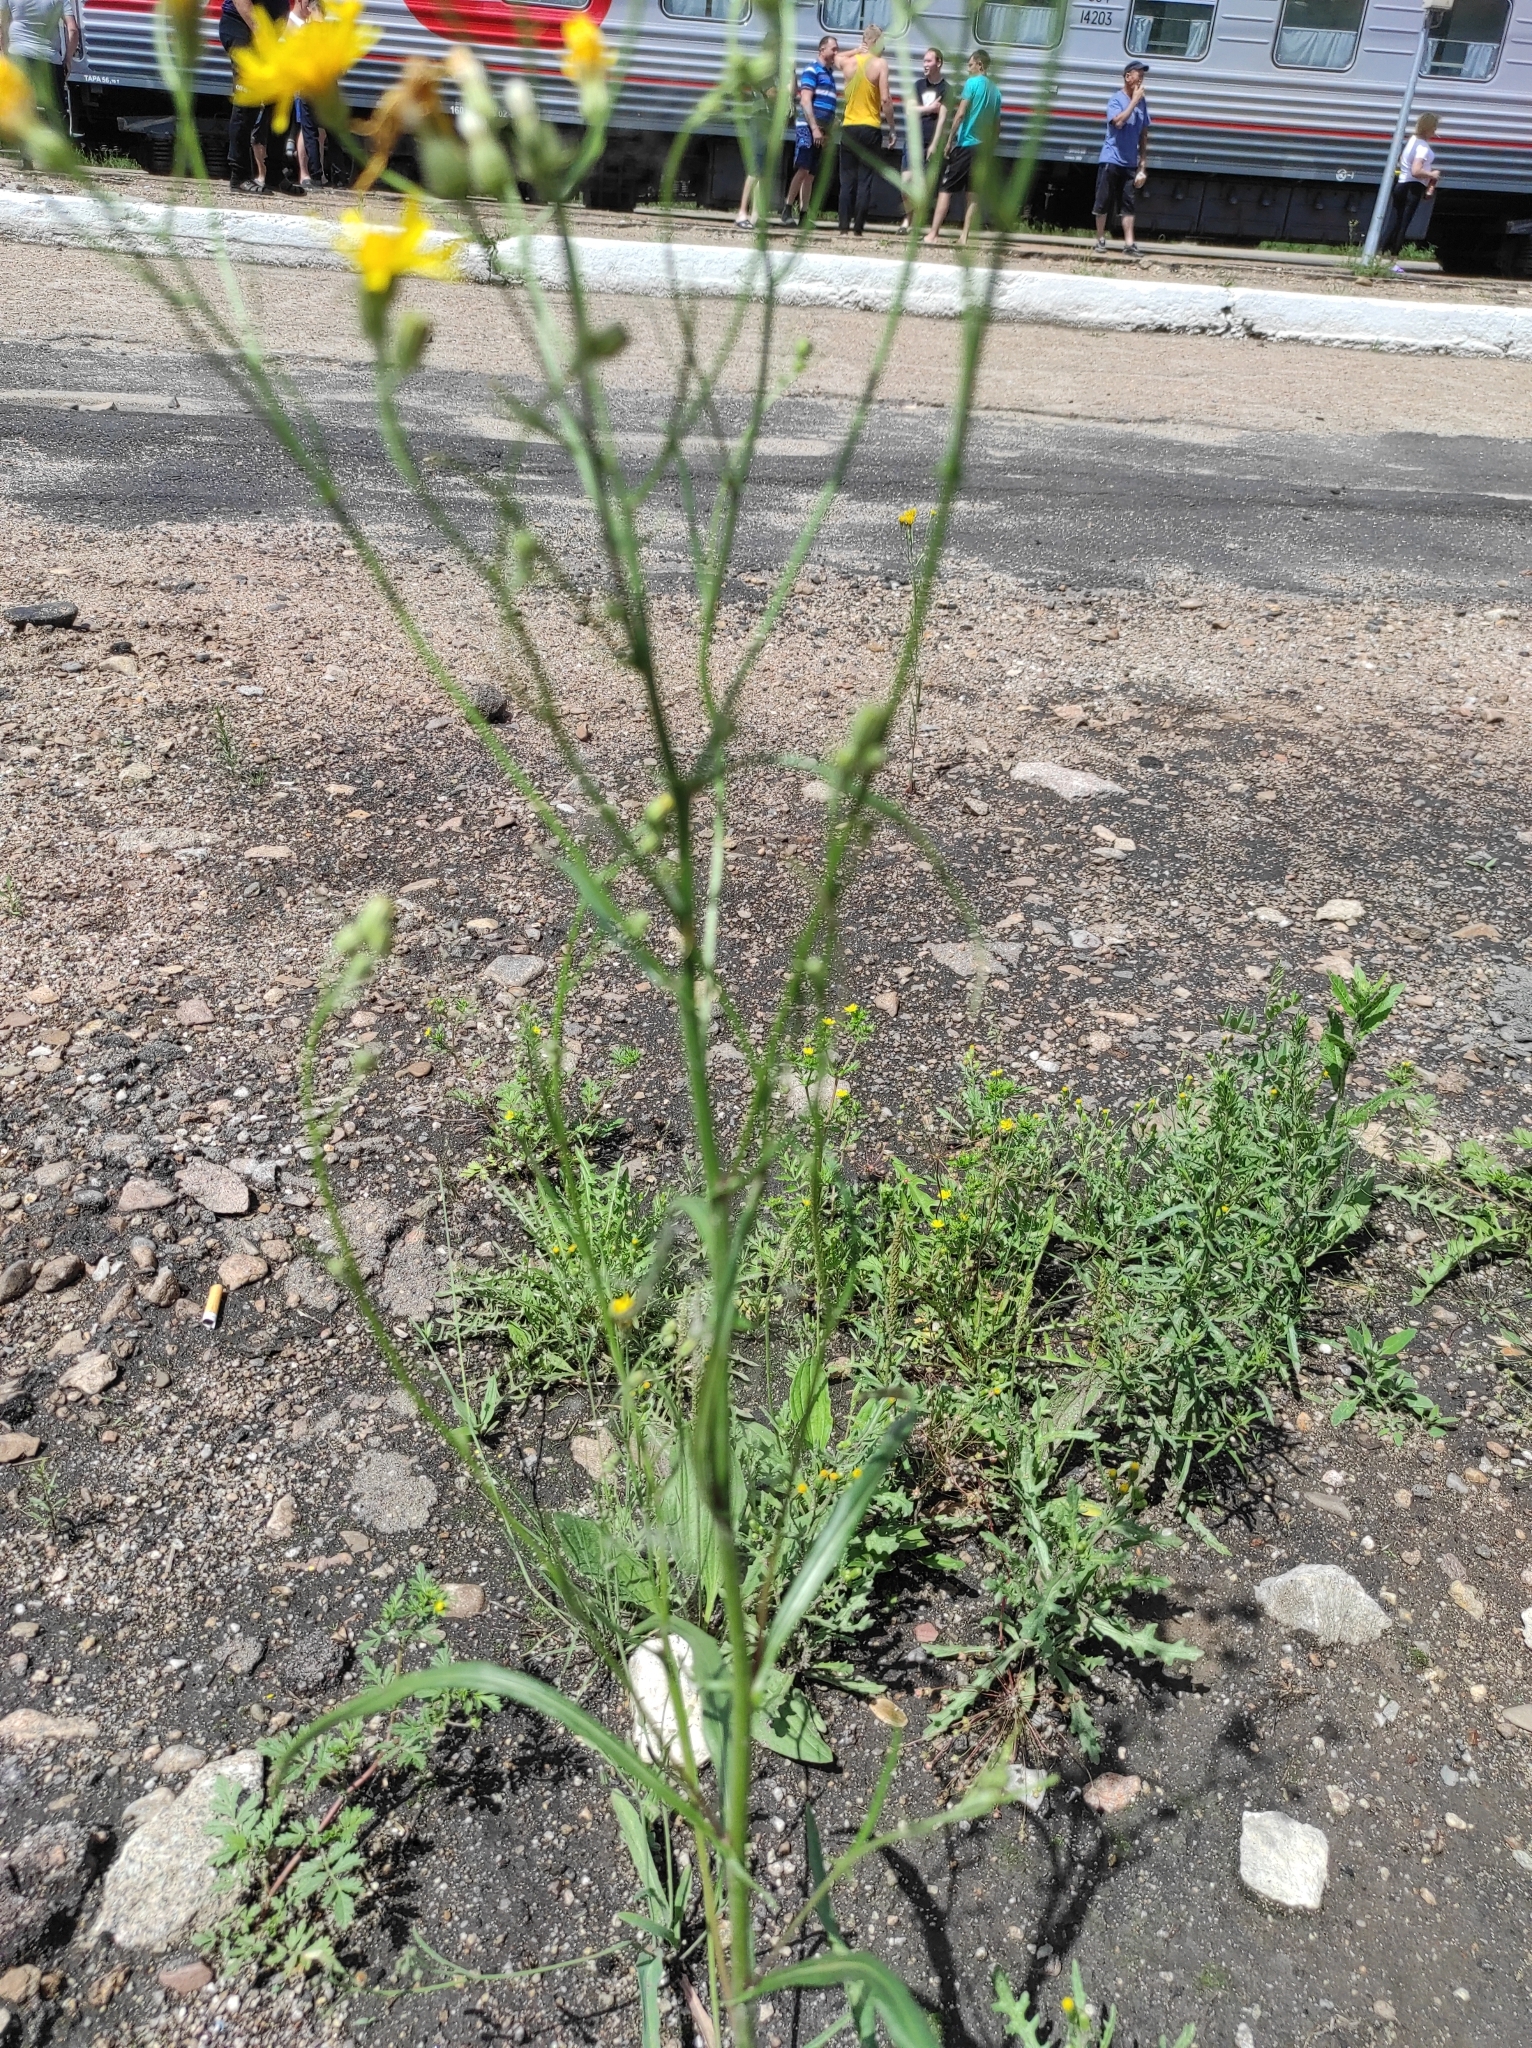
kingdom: Plantae
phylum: Tracheophyta
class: Magnoliopsida
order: Asterales
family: Asteraceae
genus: Crepis
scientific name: Crepis tectorum
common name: Narrow-leaved hawk's-beard
